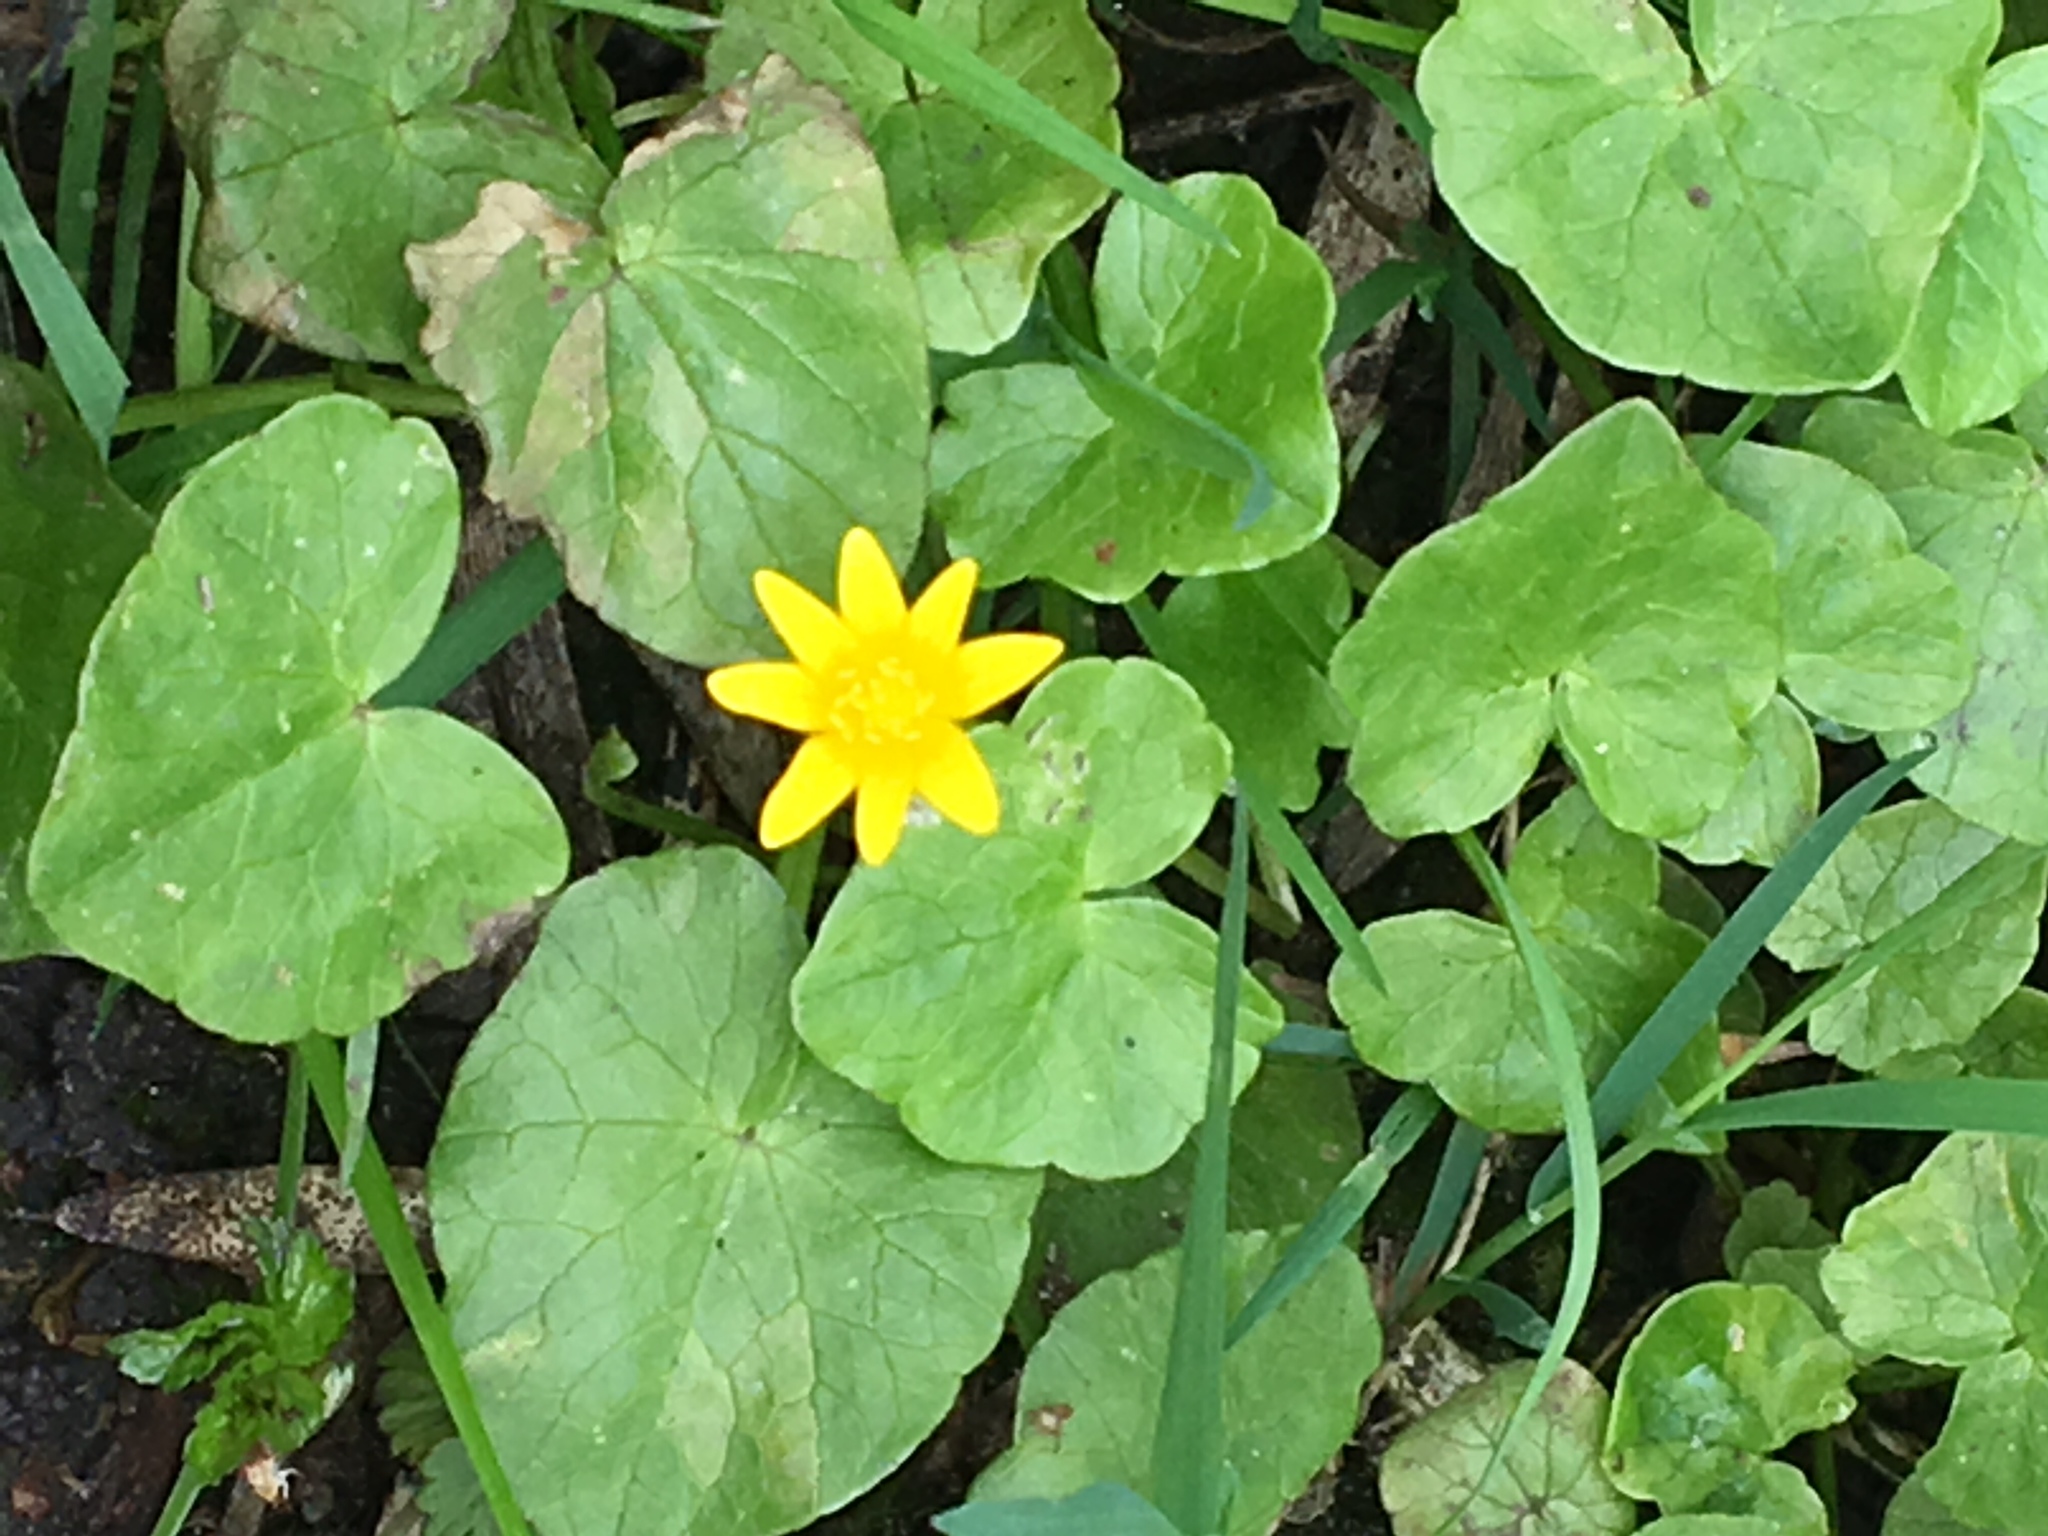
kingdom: Plantae
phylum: Tracheophyta
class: Magnoliopsida
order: Ranunculales
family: Ranunculaceae
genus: Ficaria
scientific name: Ficaria verna
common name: Lesser celandine
